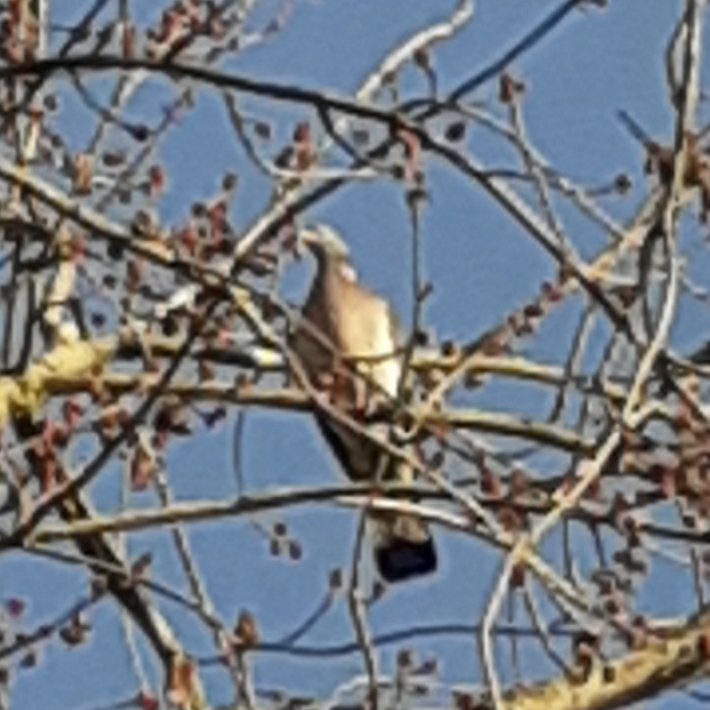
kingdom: Animalia
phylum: Chordata
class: Aves
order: Columbiformes
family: Columbidae
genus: Columba
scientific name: Columba palumbus
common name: Common wood pigeon
